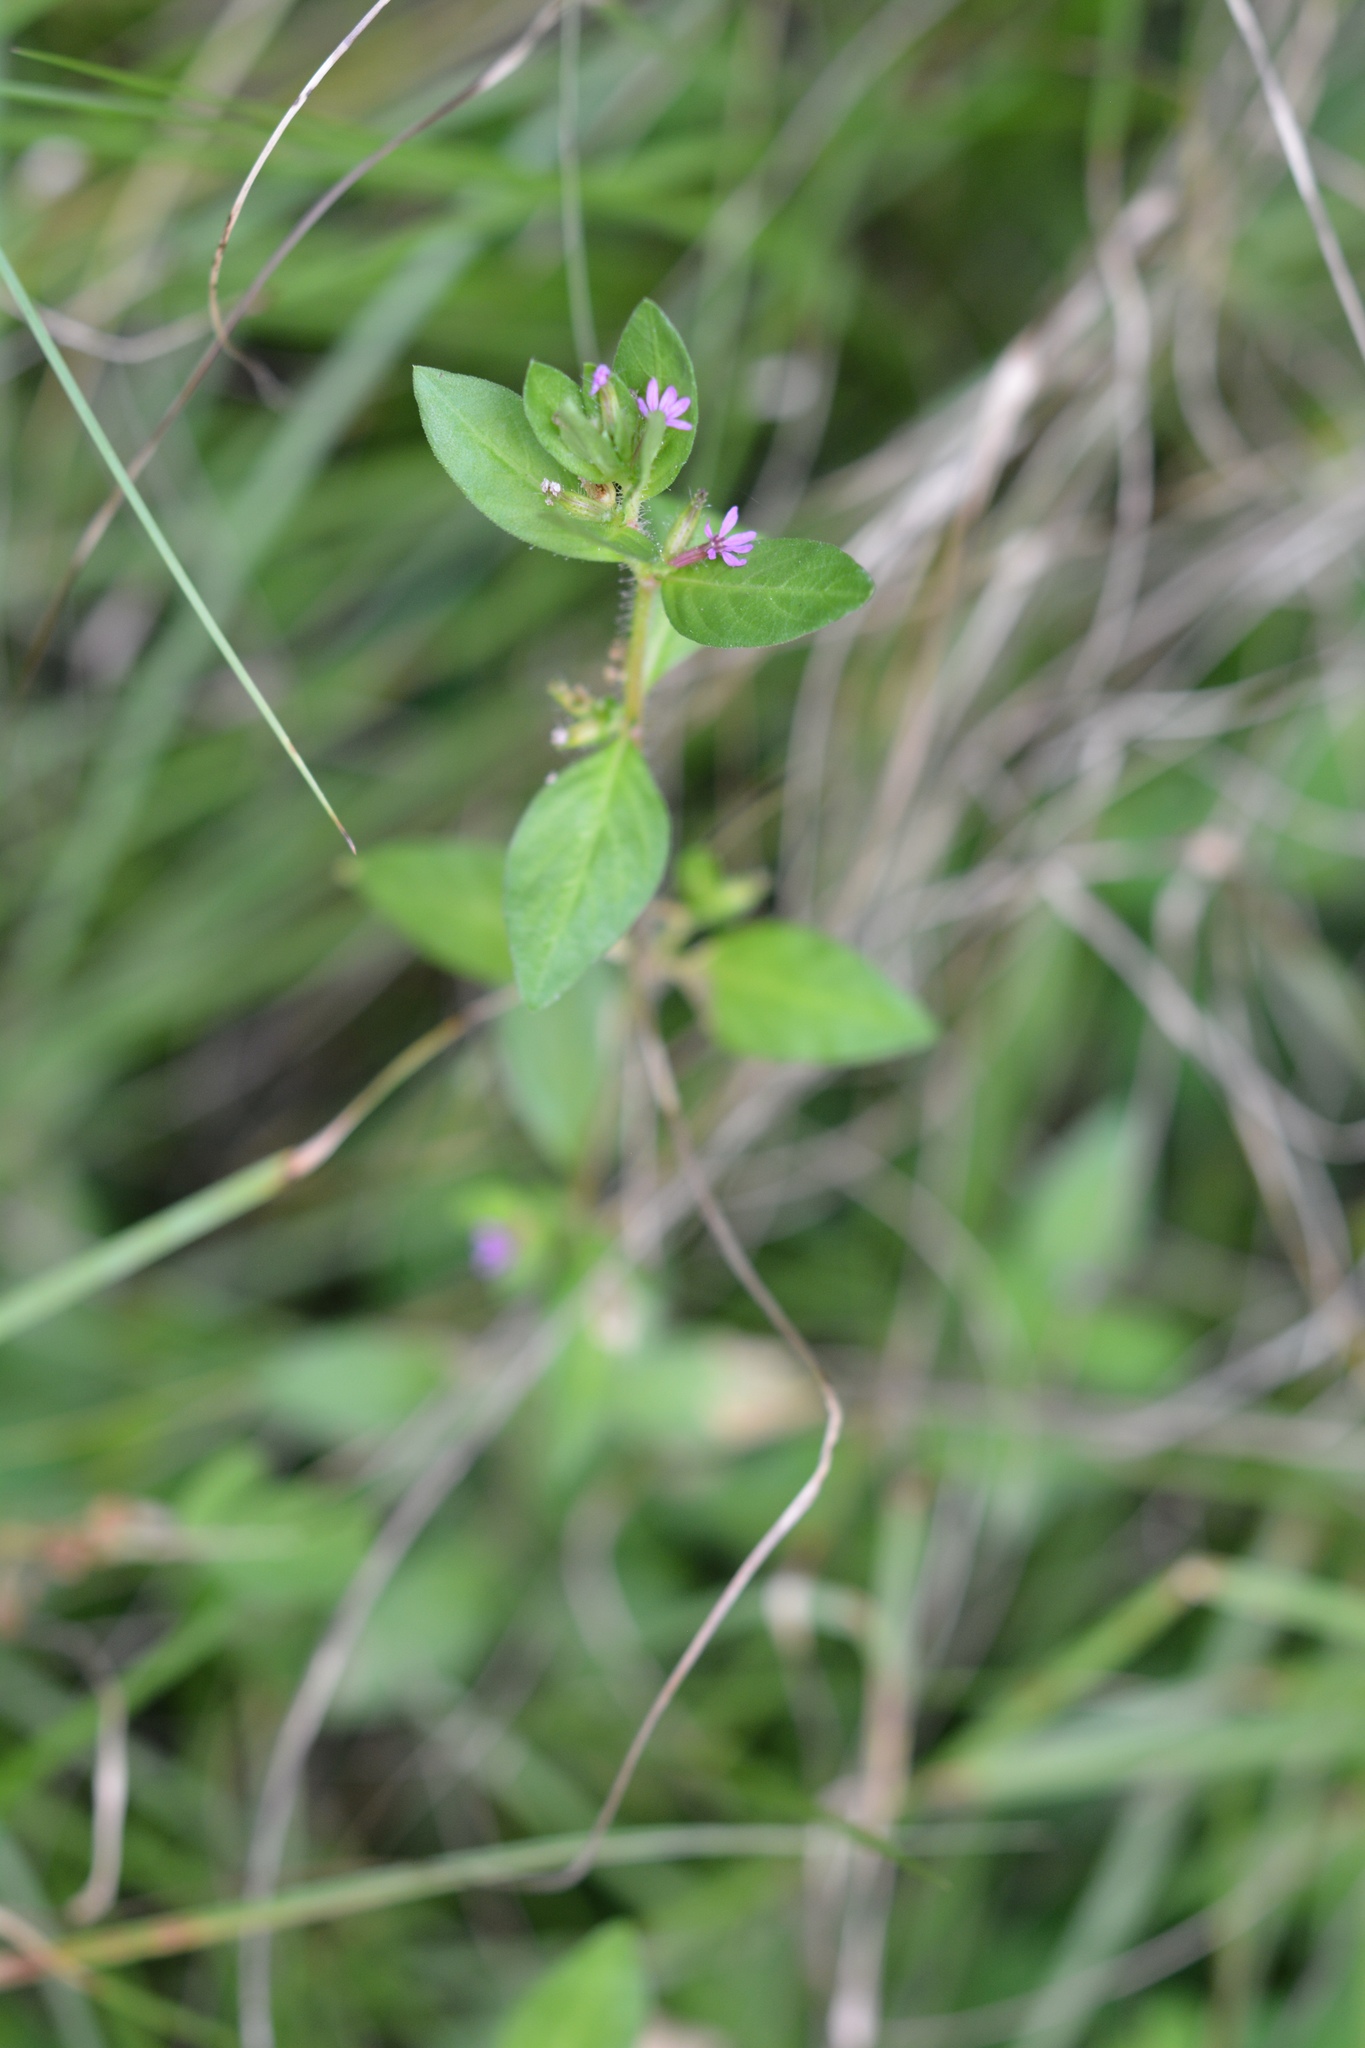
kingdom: Plantae
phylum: Tracheophyta
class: Magnoliopsida
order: Myrtales
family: Lythraceae
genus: Cuphea
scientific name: Cuphea carthagenensis
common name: Colombian waxweed
